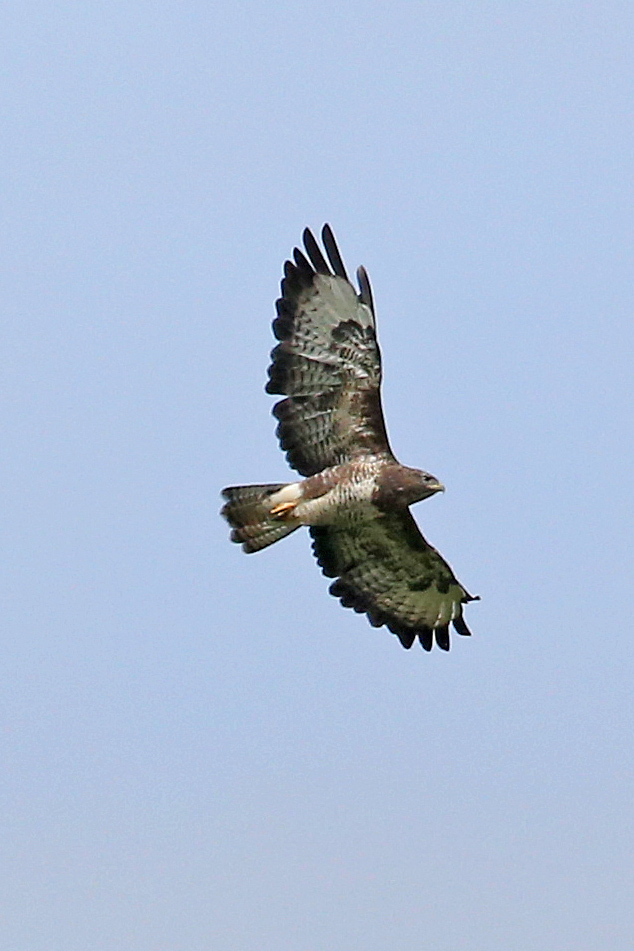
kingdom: Animalia
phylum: Chordata
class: Aves
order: Accipitriformes
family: Accipitridae
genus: Buteo
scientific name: Buteo buteo
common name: Common buzzard
